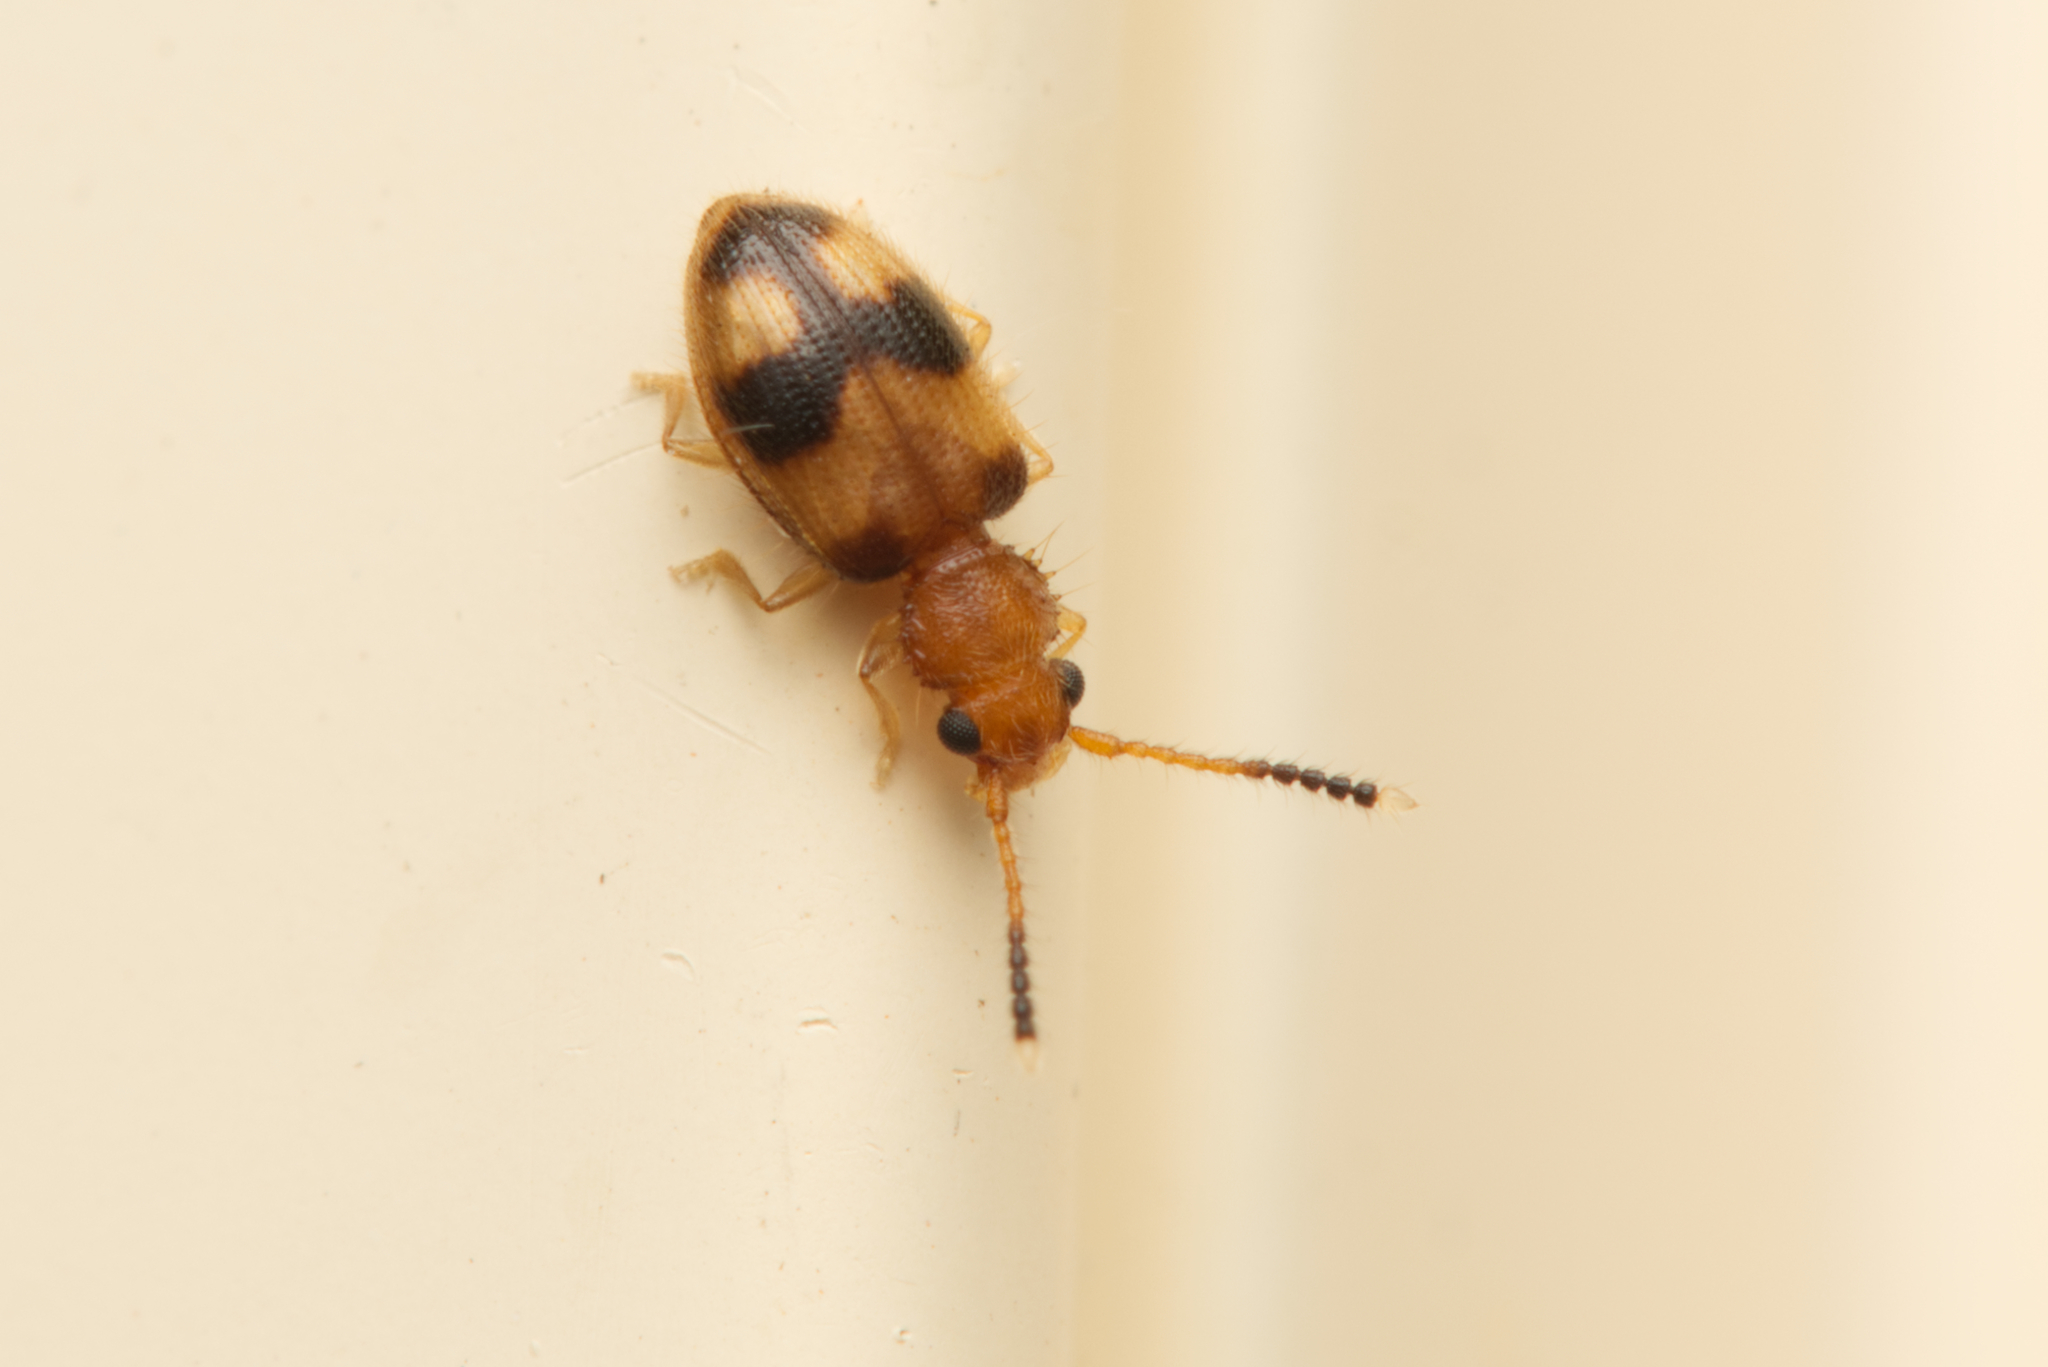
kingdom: Animalia
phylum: Arthropoda
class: Insecta
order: Coleoptera
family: Silvanidae
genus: Psammoecus
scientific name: Psammoecus
